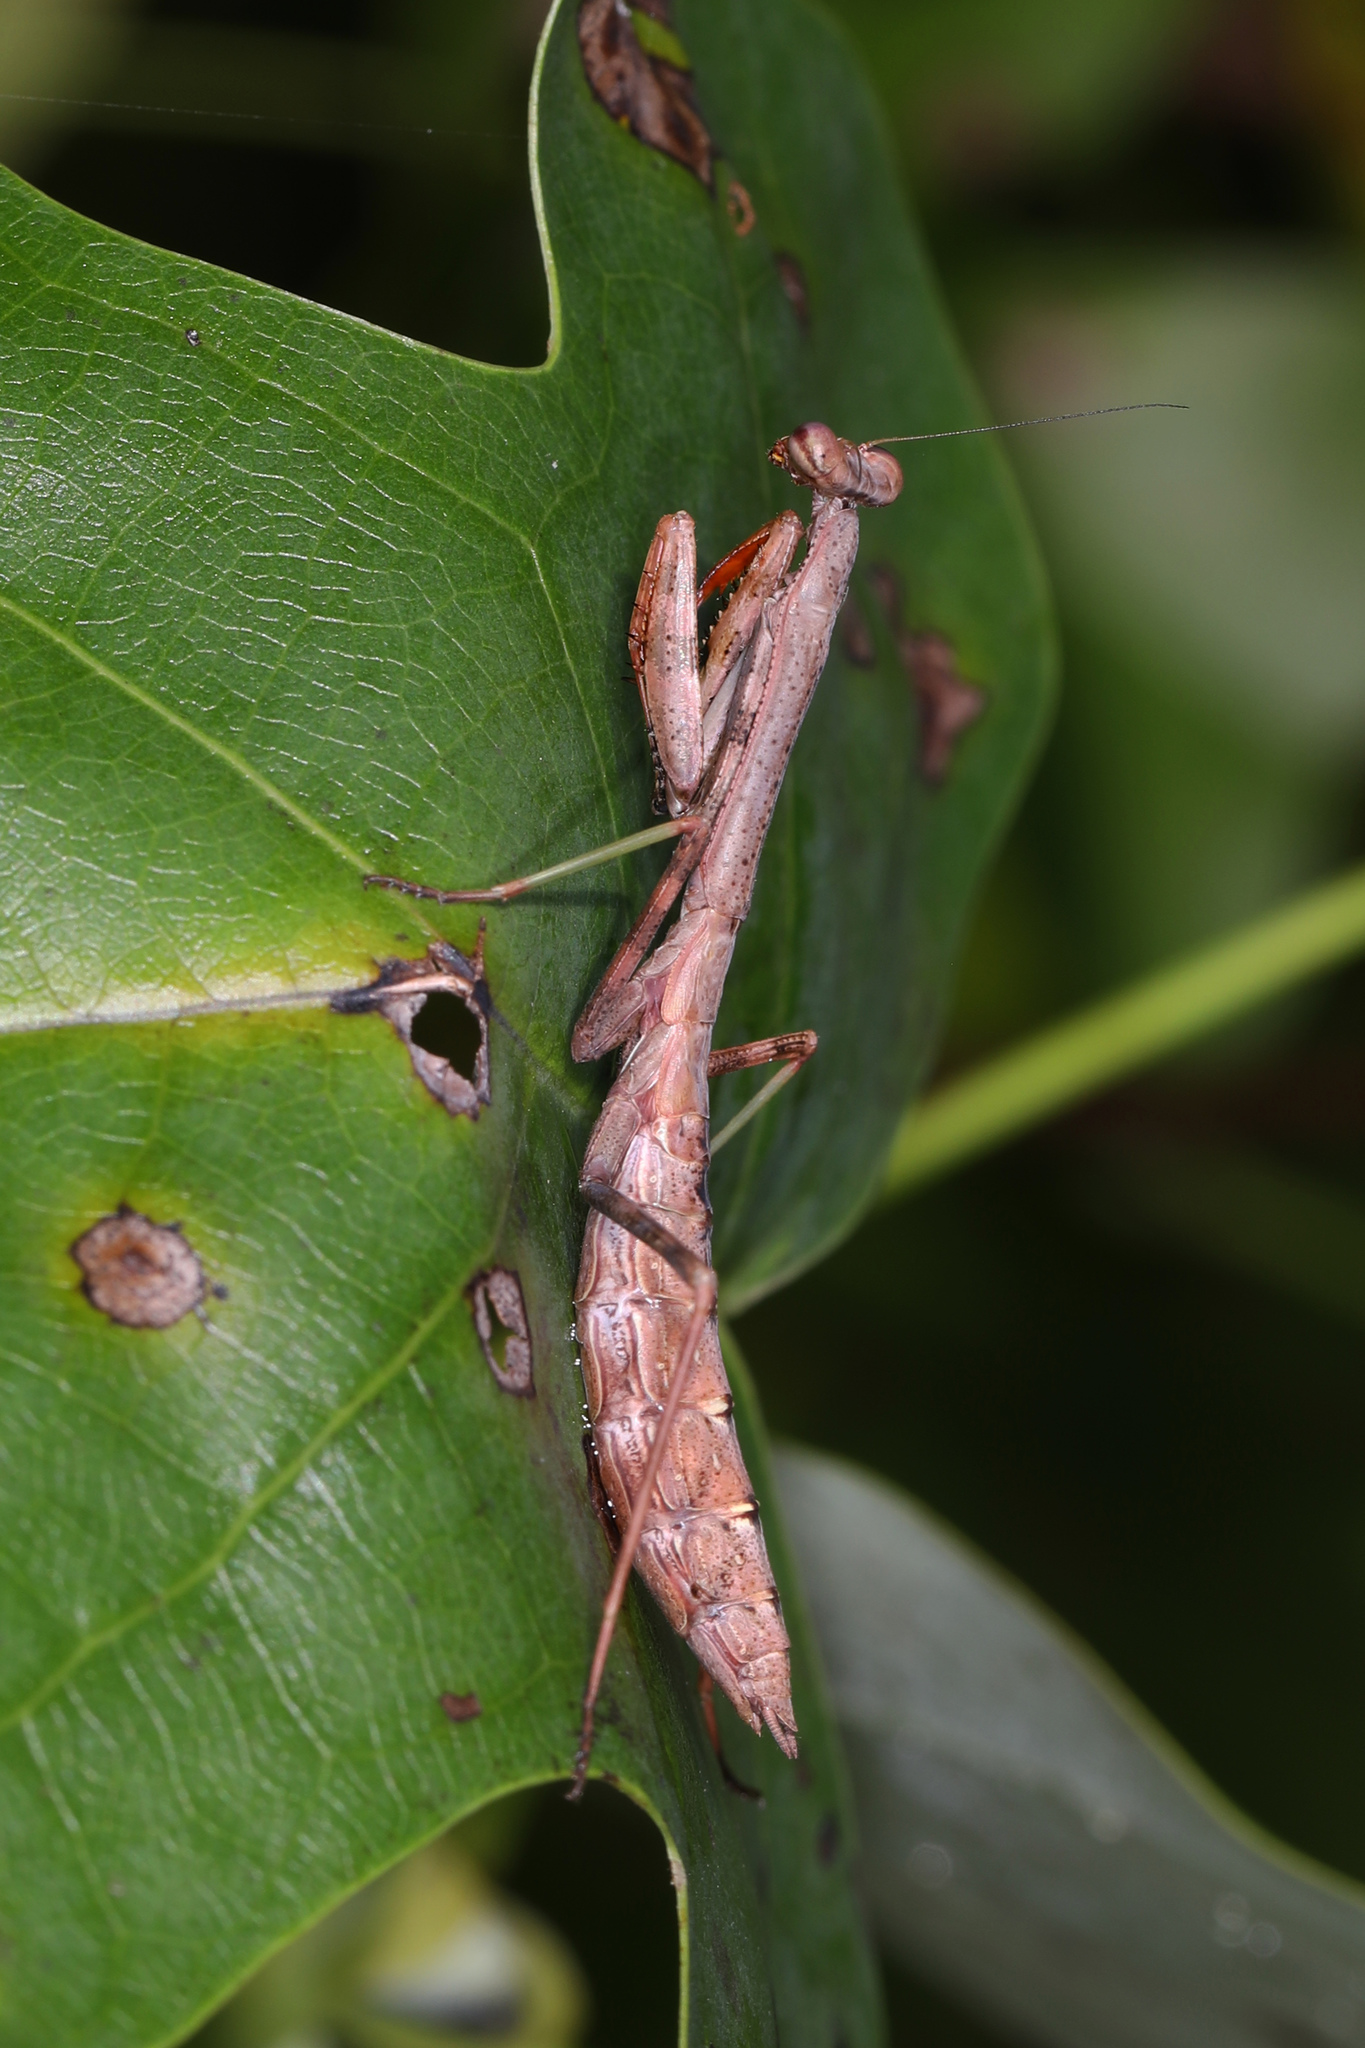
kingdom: Animalia
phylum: Arthropoda
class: Insecta
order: Mantodea
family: Mantidae
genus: Stagmomantis
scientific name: Stagmomantis carolina
